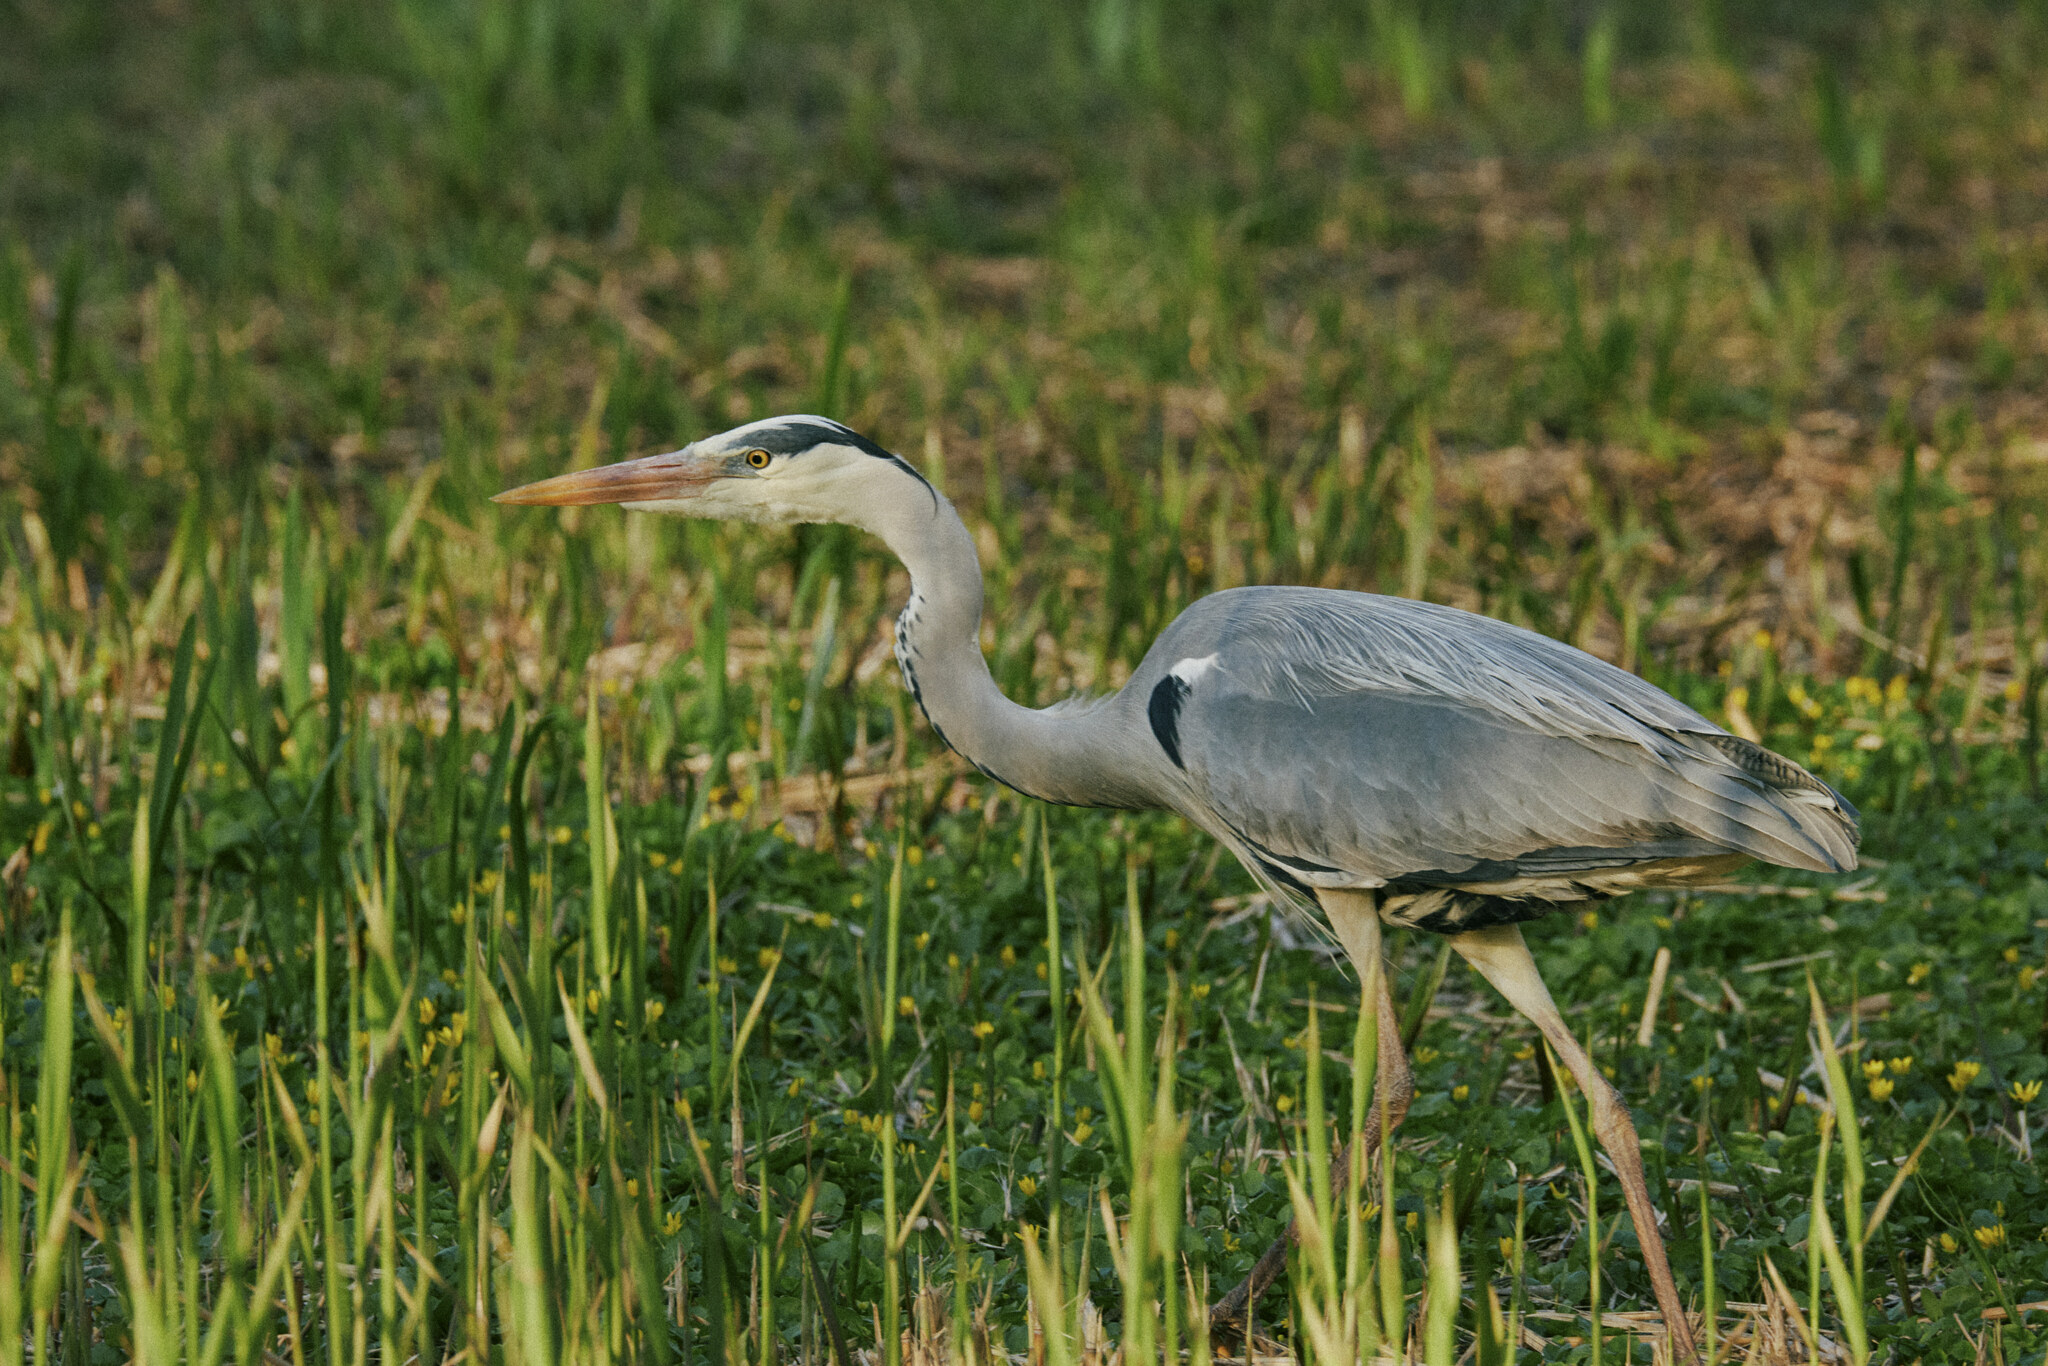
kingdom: Animalia
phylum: Chordata
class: Aves
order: Pelecaniformes
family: Ardeidae
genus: Ardea
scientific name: Ardea cinerea
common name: Grey heron
